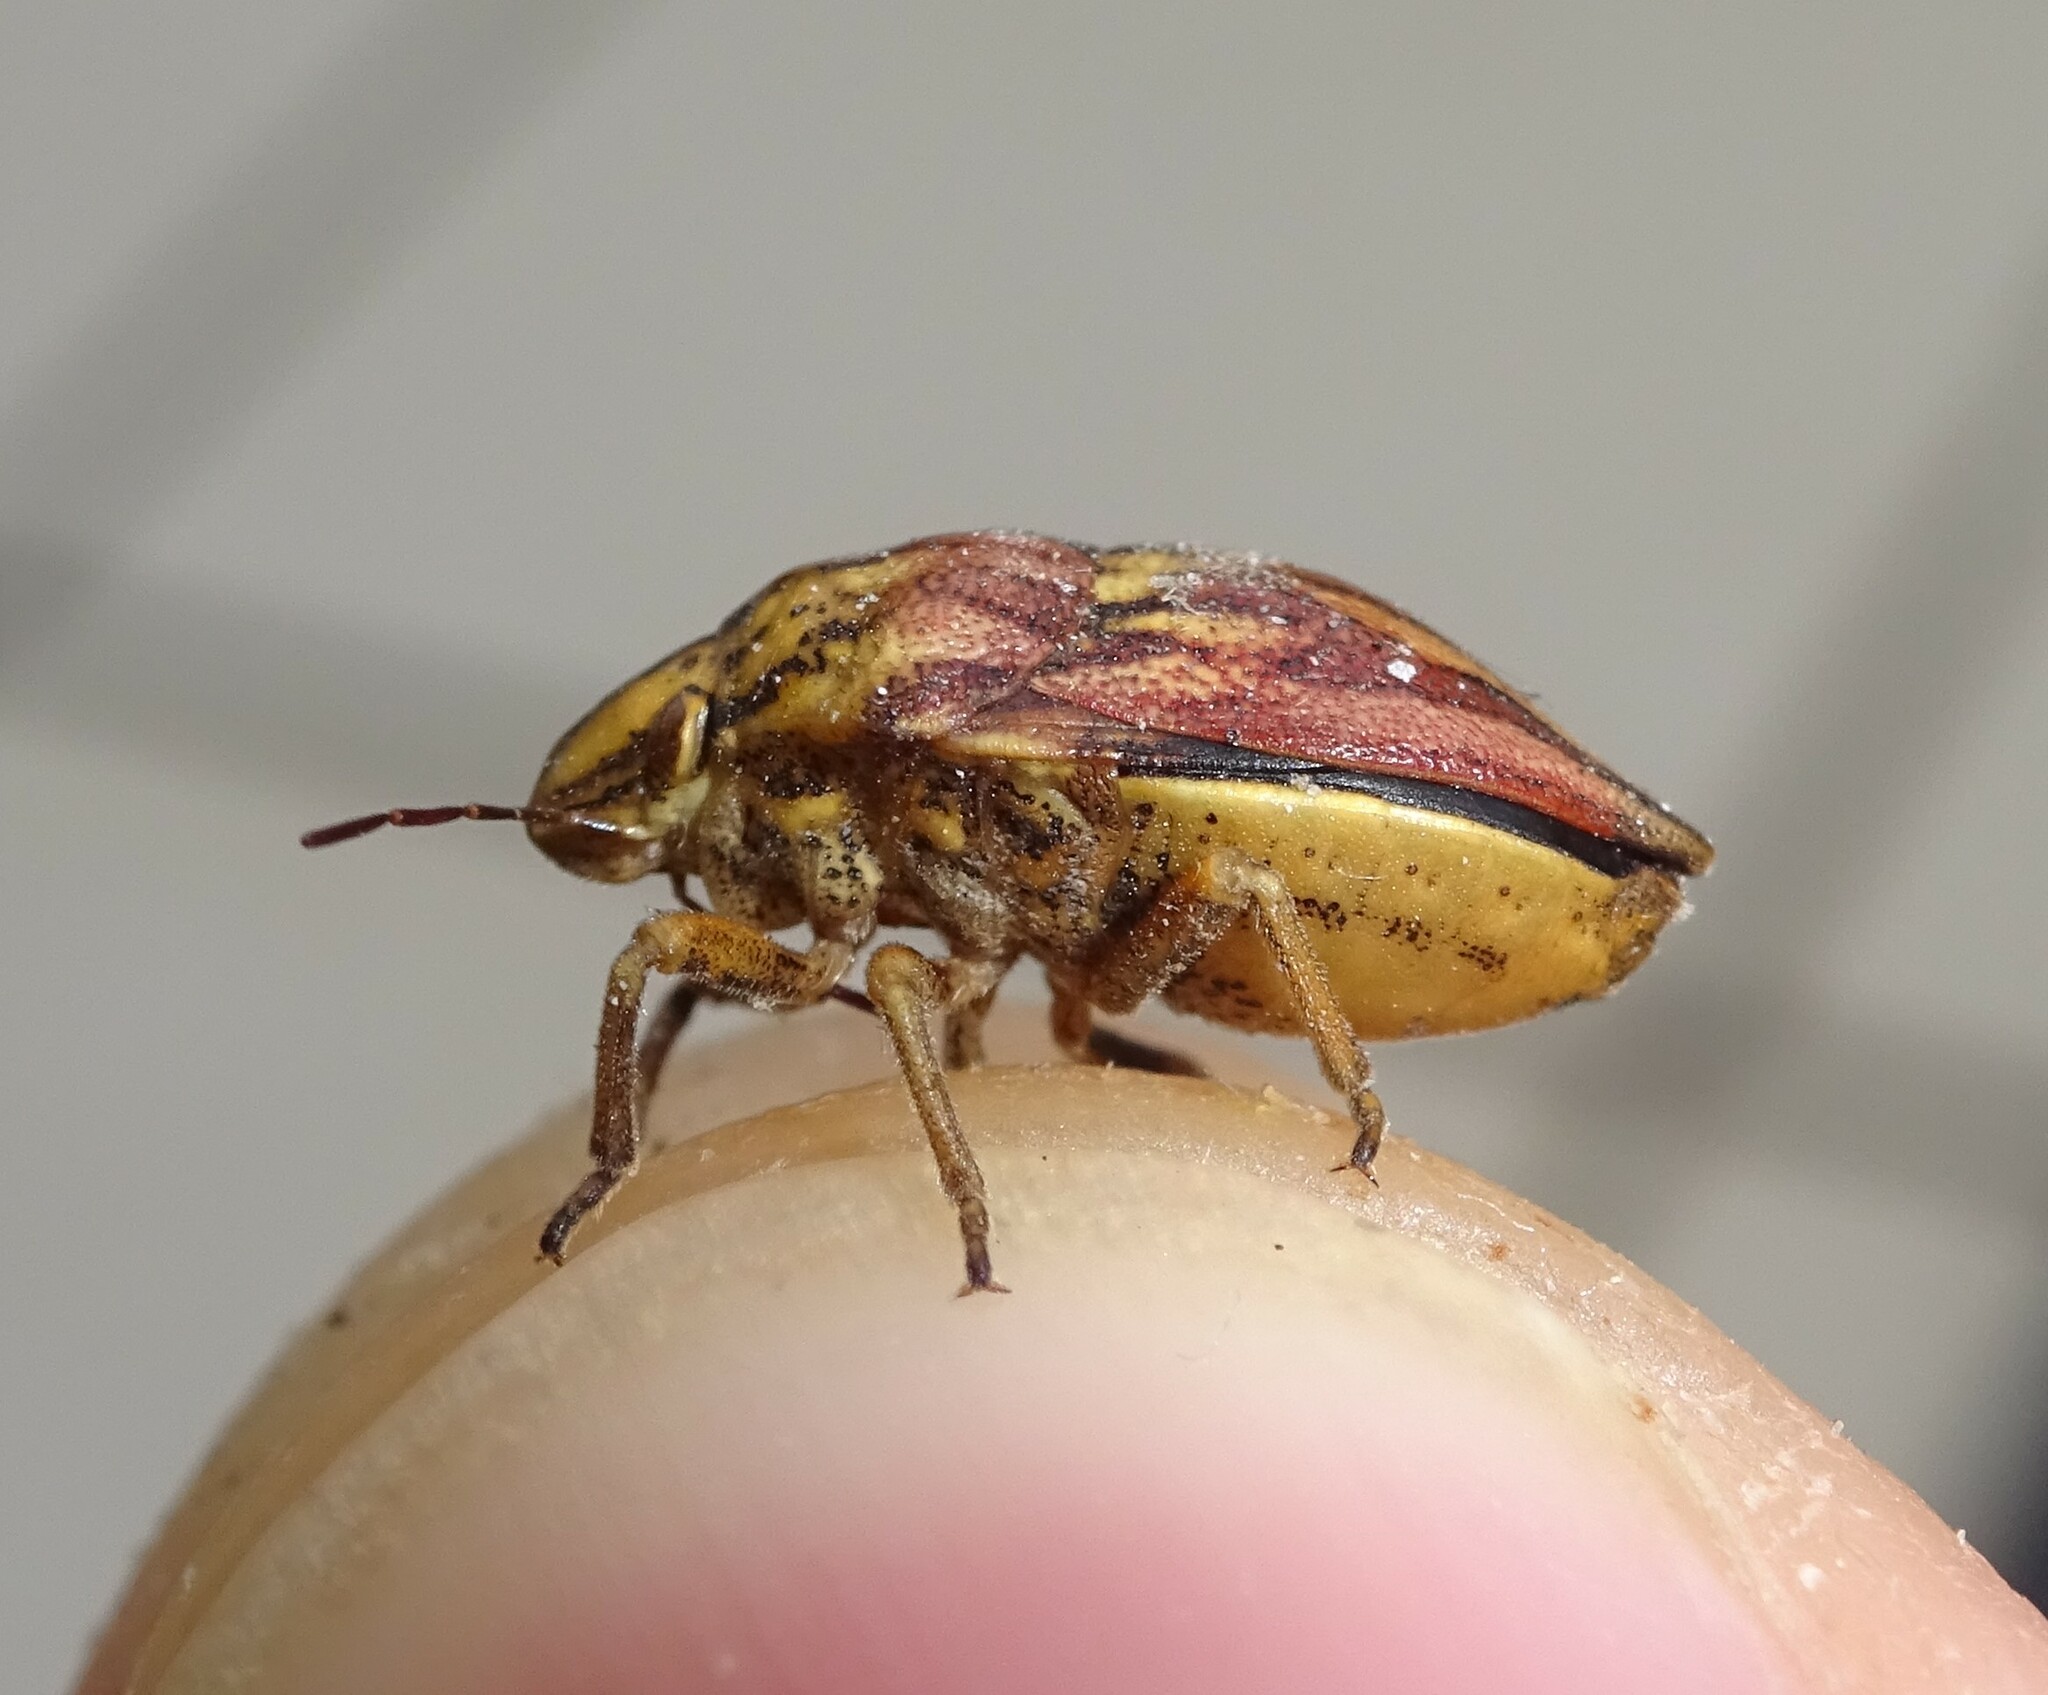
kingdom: Animalia
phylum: Arthropoda
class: Insecta
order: Hemiptera
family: Scutelleridae
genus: Odontotarsus
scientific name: Odontotarsus purpureolineatus
